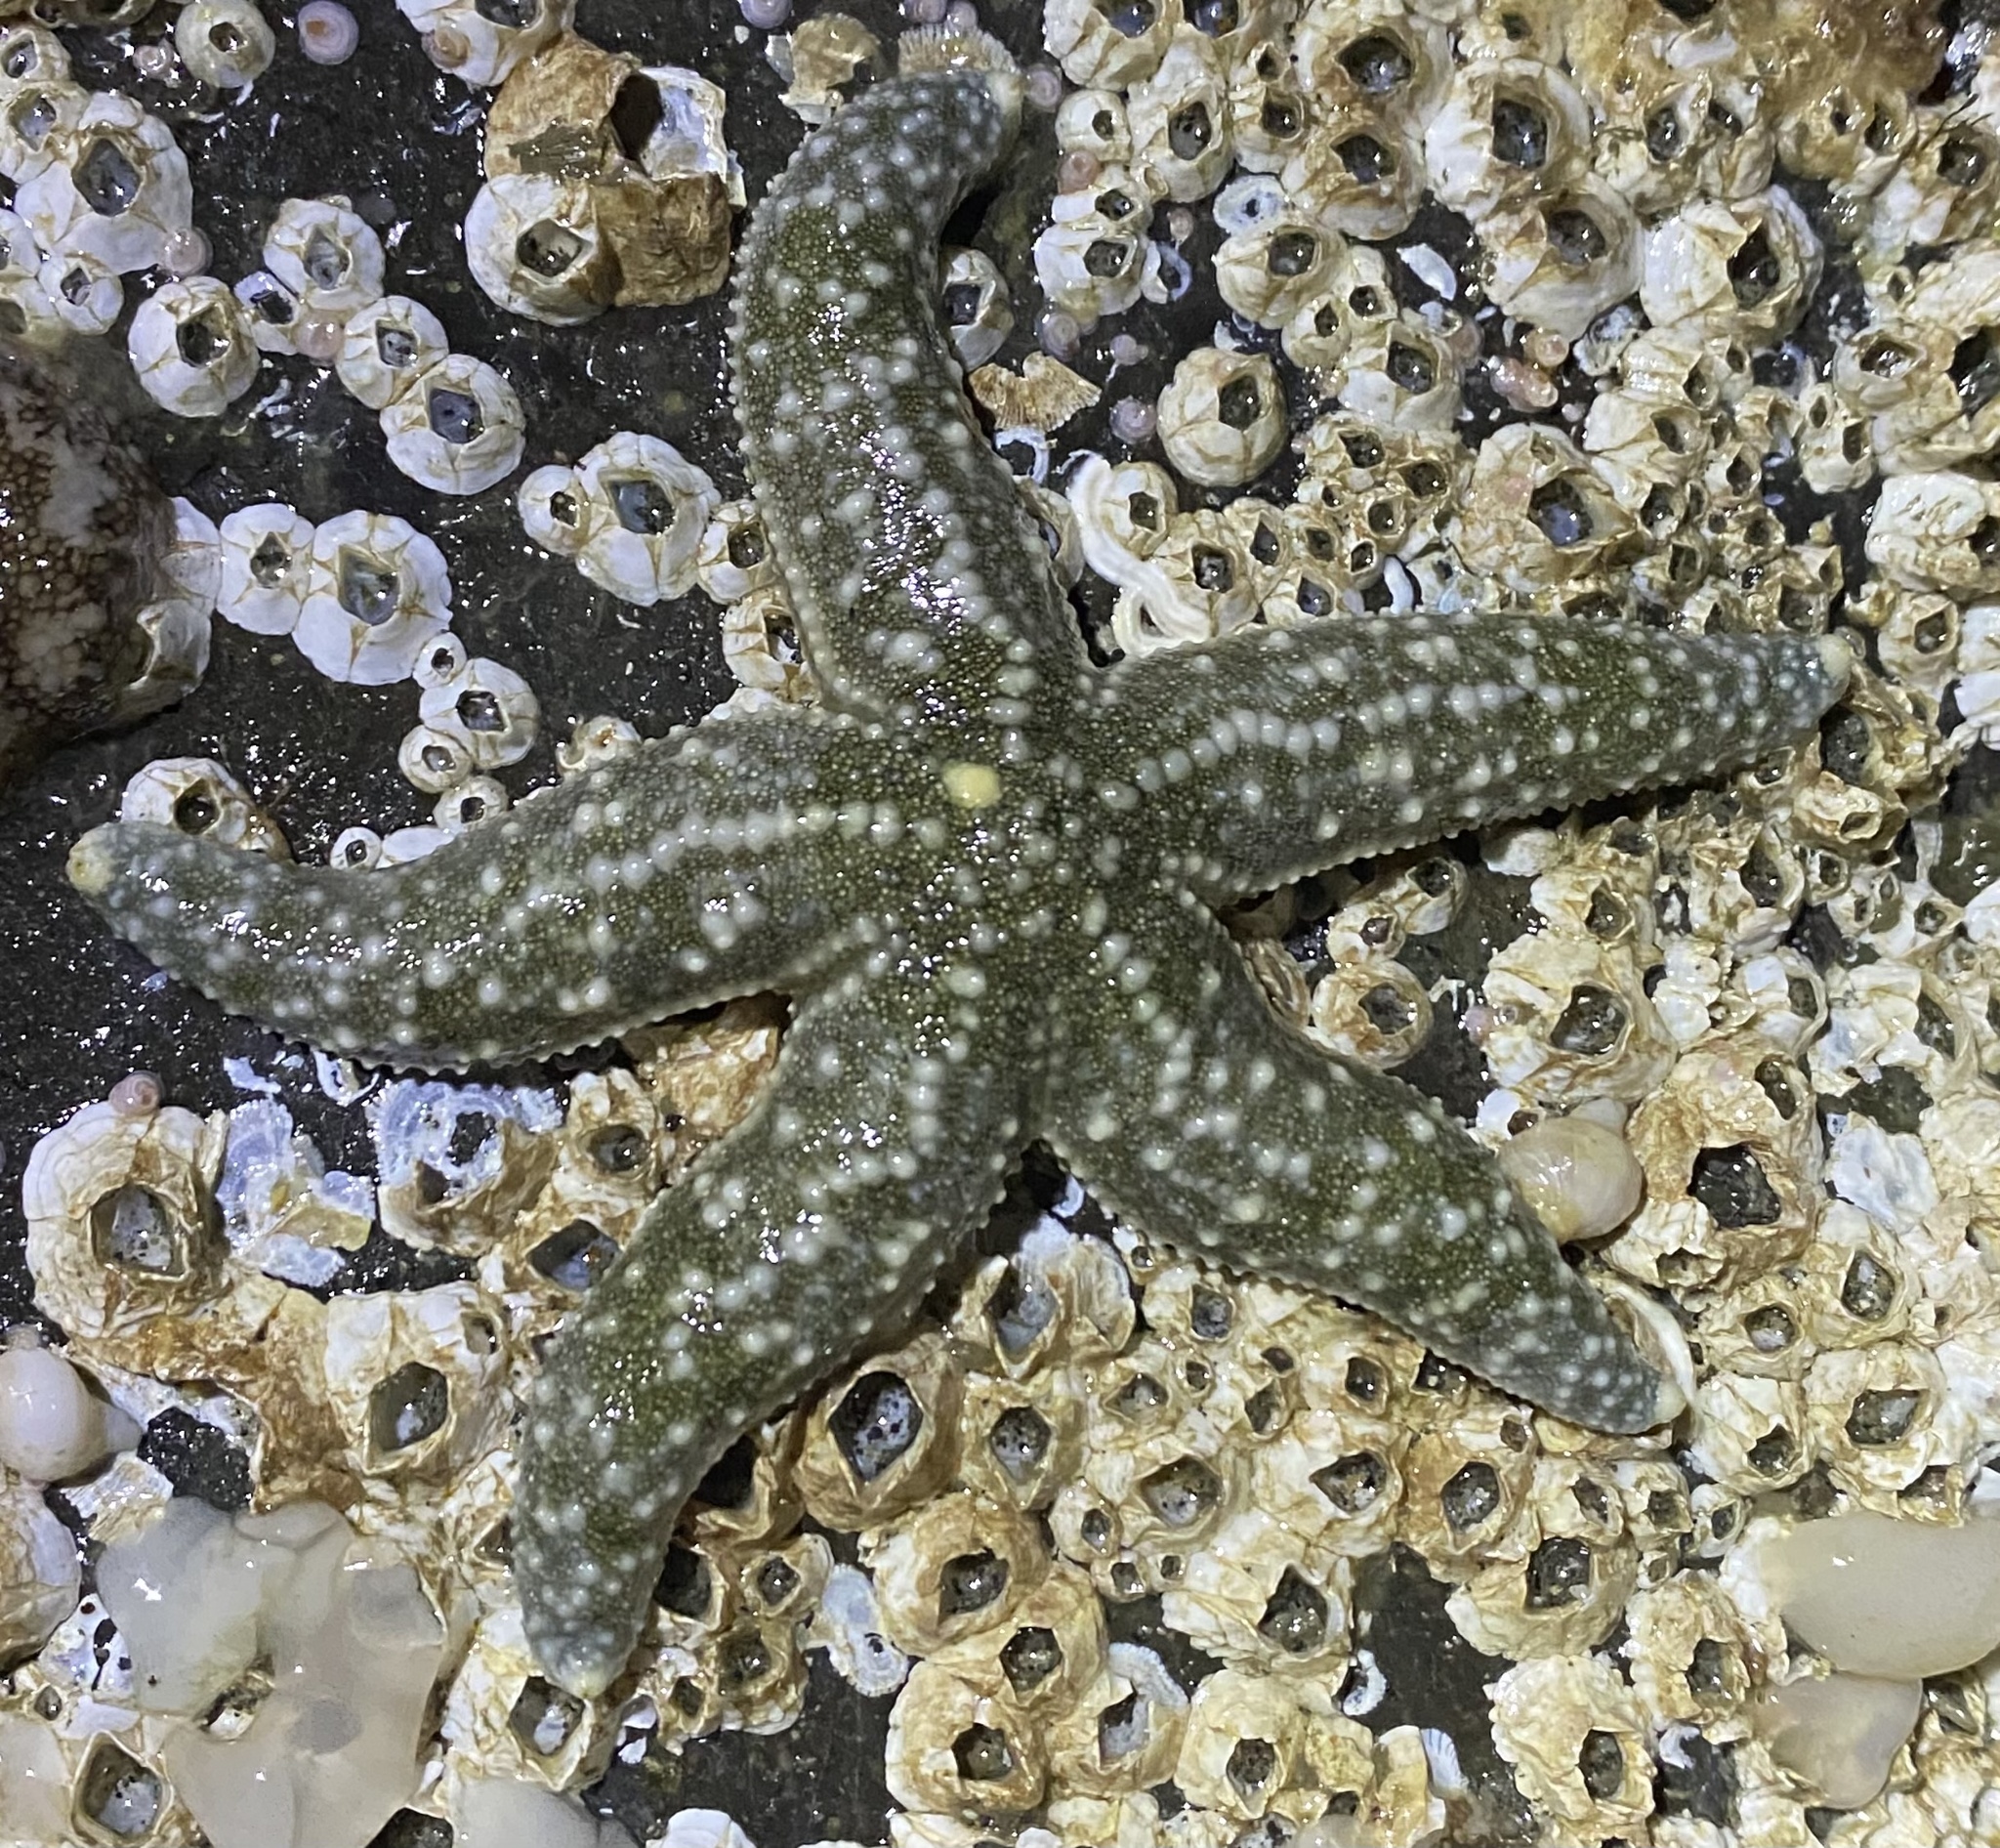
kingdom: Animalia
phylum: Echinodermata
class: Asteroidea
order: Forcipulatida
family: Asteriidae
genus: Evasterias
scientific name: Evasterias troschelii
